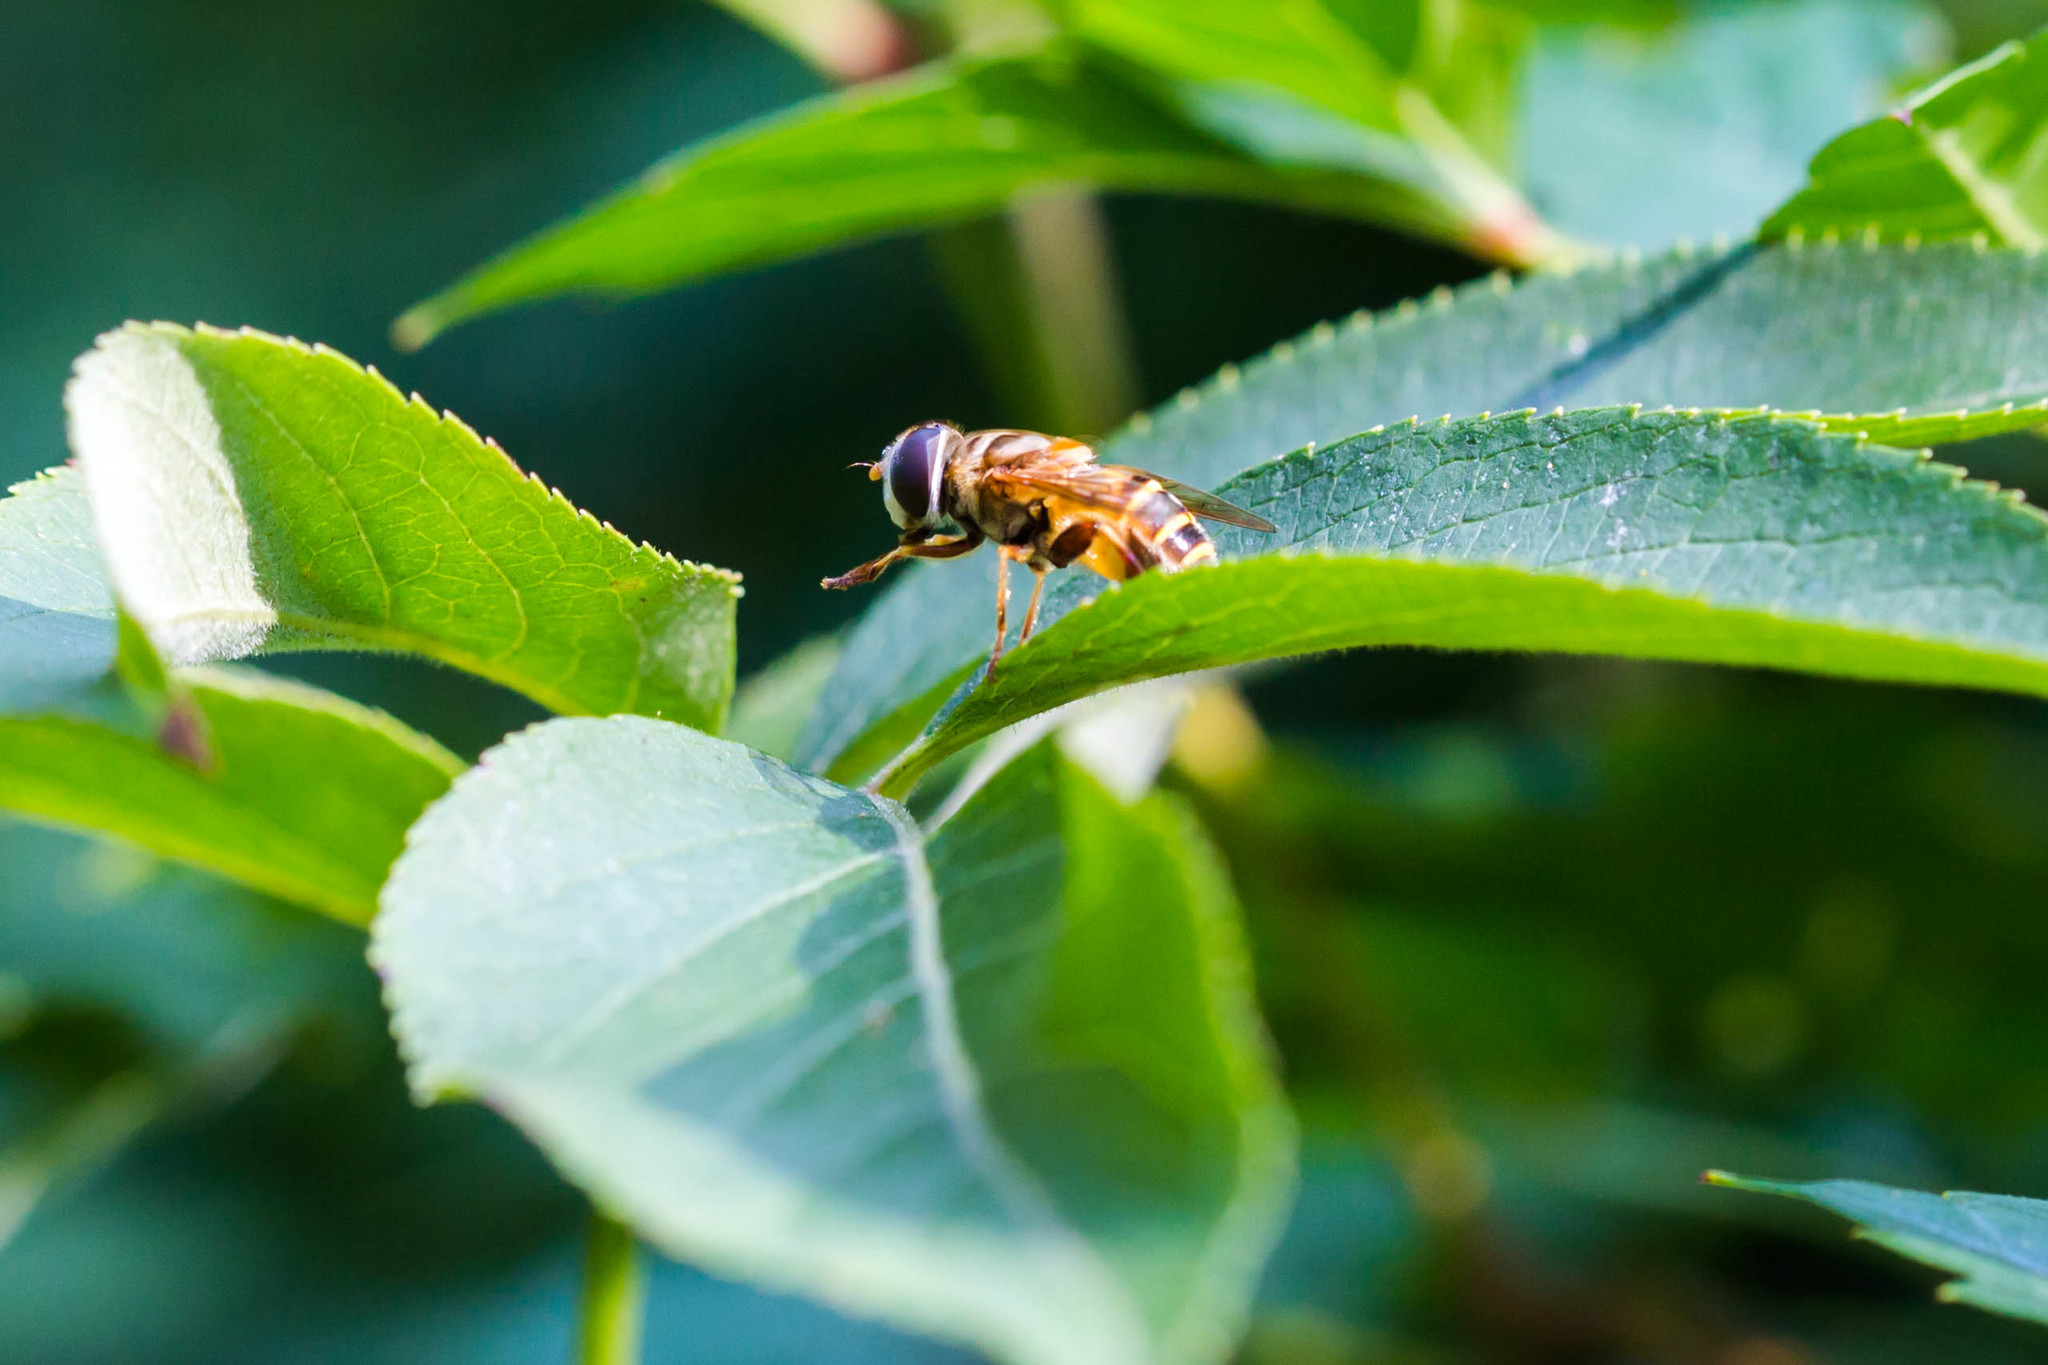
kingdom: Animalia
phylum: Arthropoda
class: Insecta
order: Diptera
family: Syrphidae
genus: Palpada
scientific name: Palpada vinetorum
